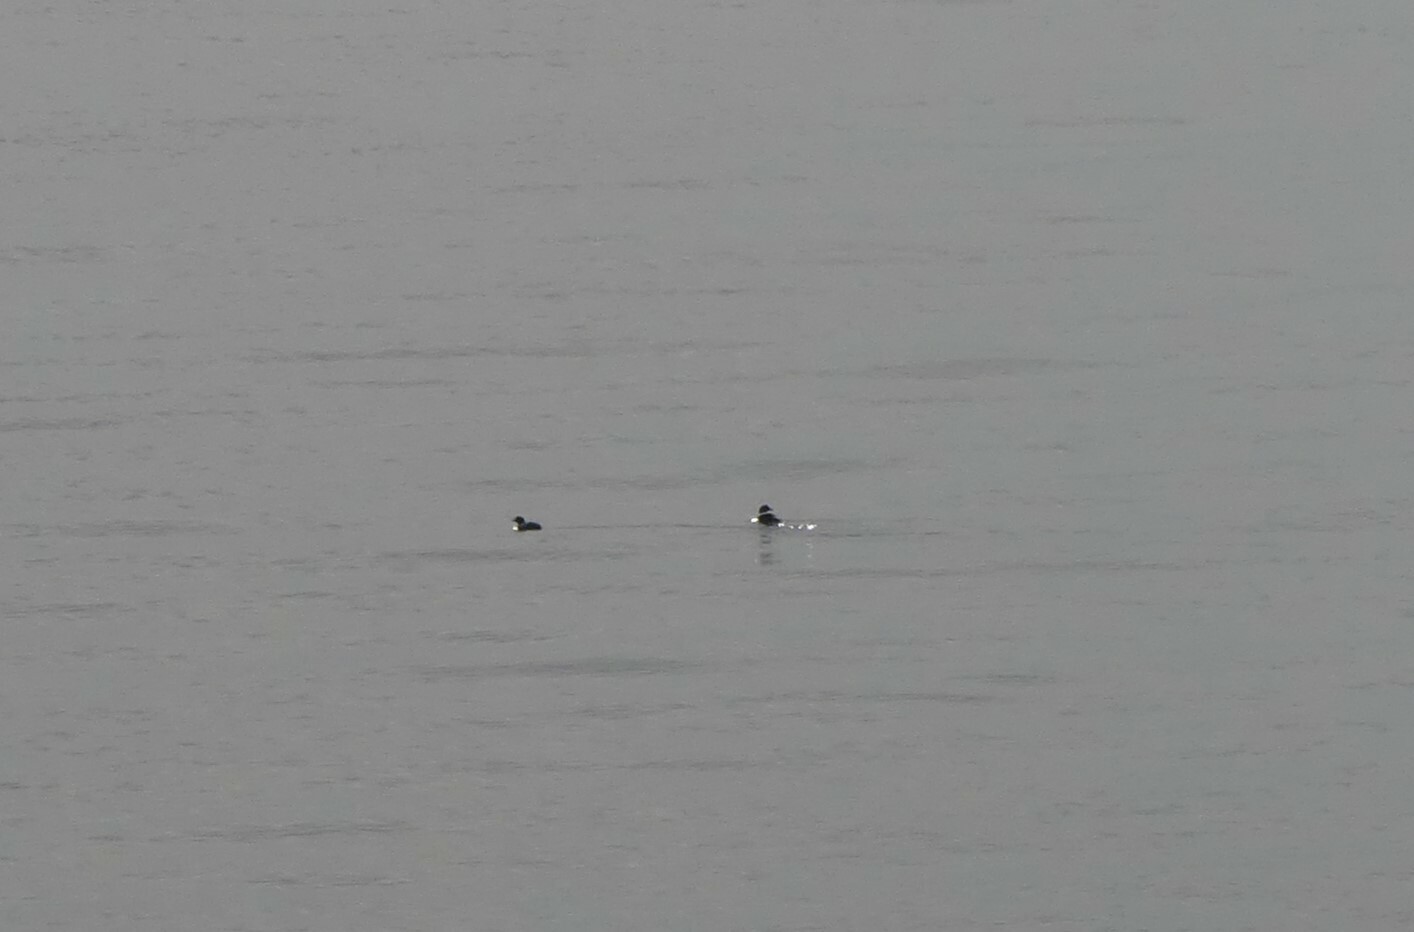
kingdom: Animalia
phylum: Chordata
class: Aves
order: Charadriiformes
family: Alcidae
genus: Cepphus
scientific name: Cepphus columba
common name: Pigeon guillemot
